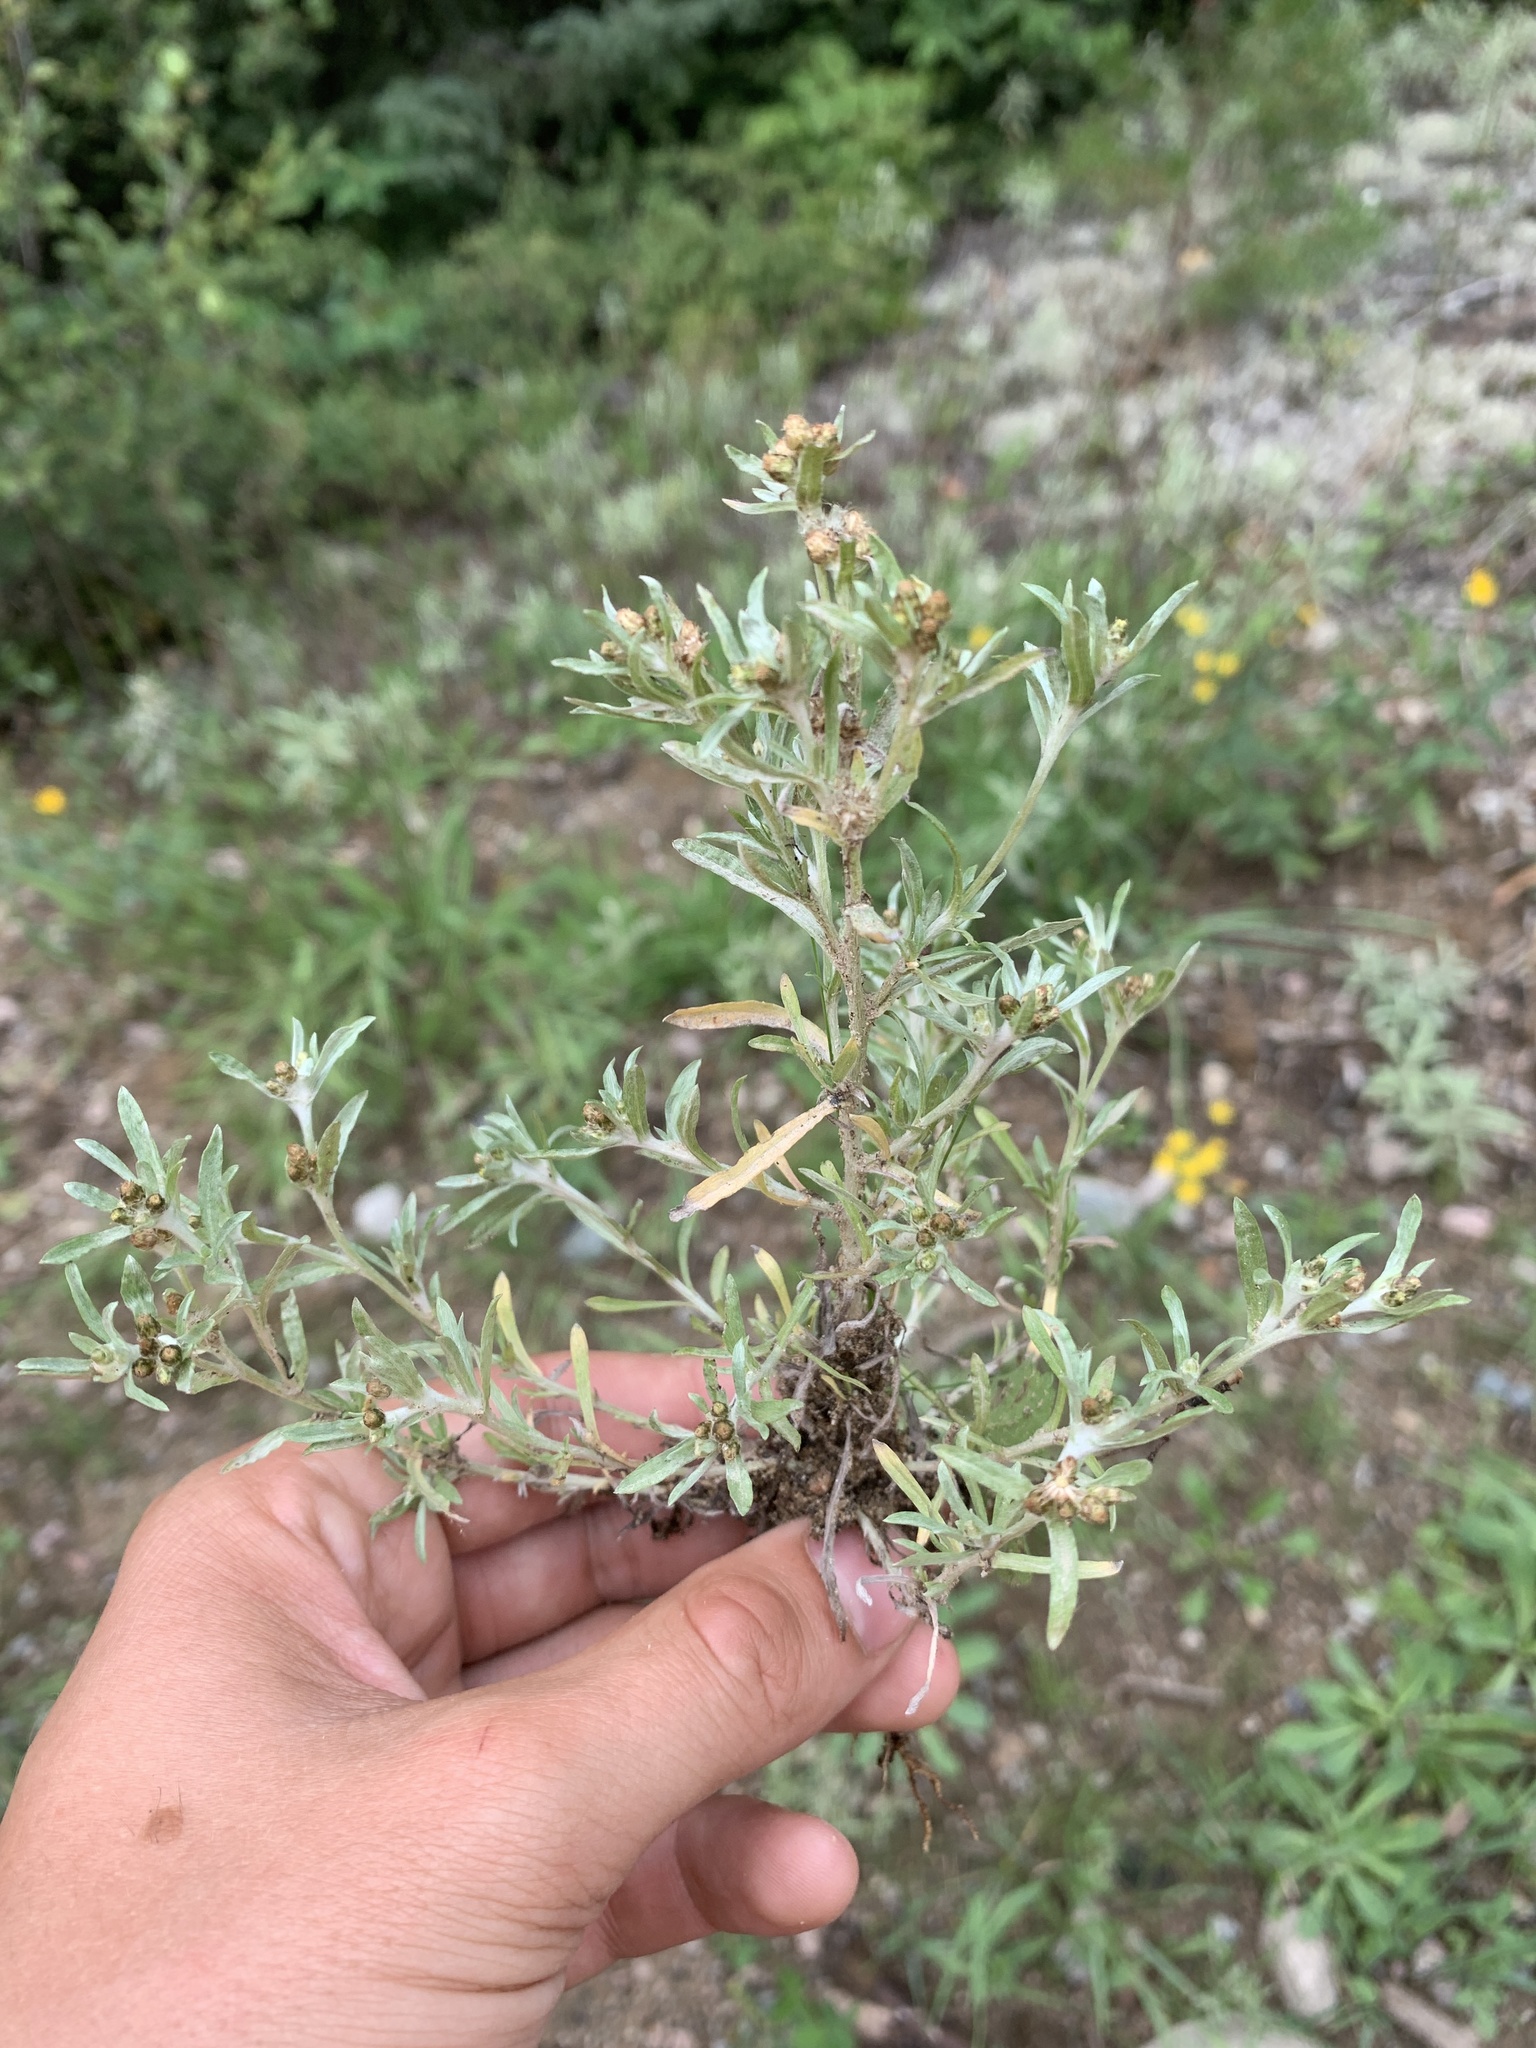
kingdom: Plantae
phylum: Tracheophyta
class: Magnoliopsida
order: Asterales
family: Asteraceae
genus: Gnaphalium
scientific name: Gnaphalium uliginosum
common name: Marsh cudweed
